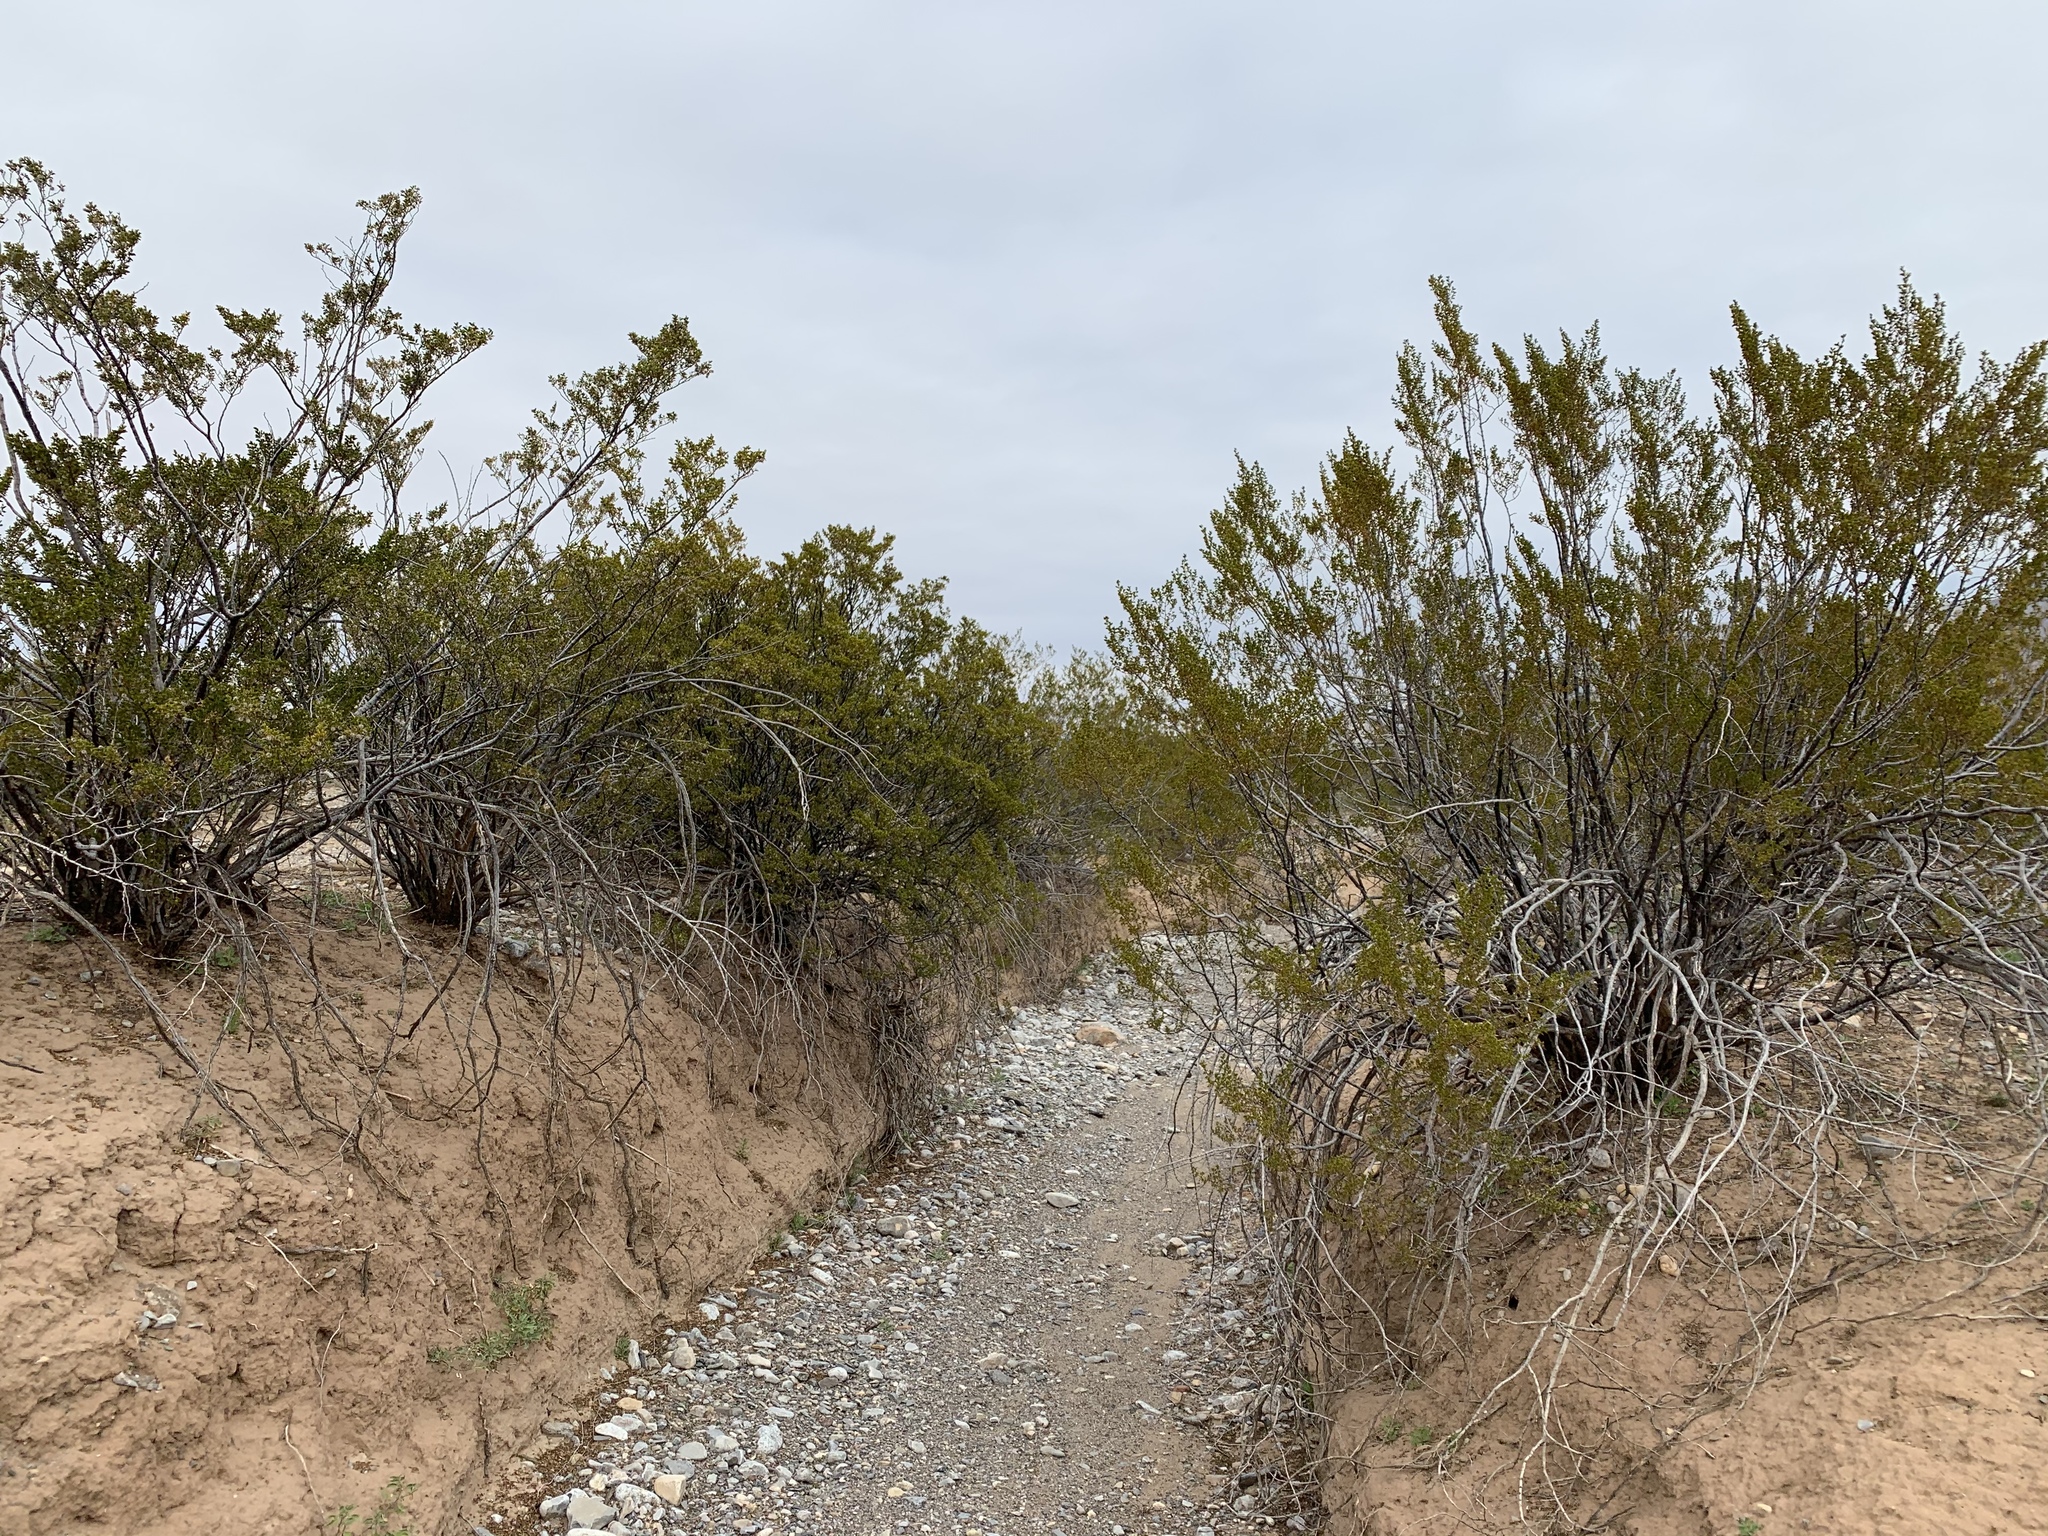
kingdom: Plantae
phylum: Tracheophyta
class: Magnoliopsida
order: Zygophyllales
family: Zygophyllaceae
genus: Larrea
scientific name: Larrea tridentata
